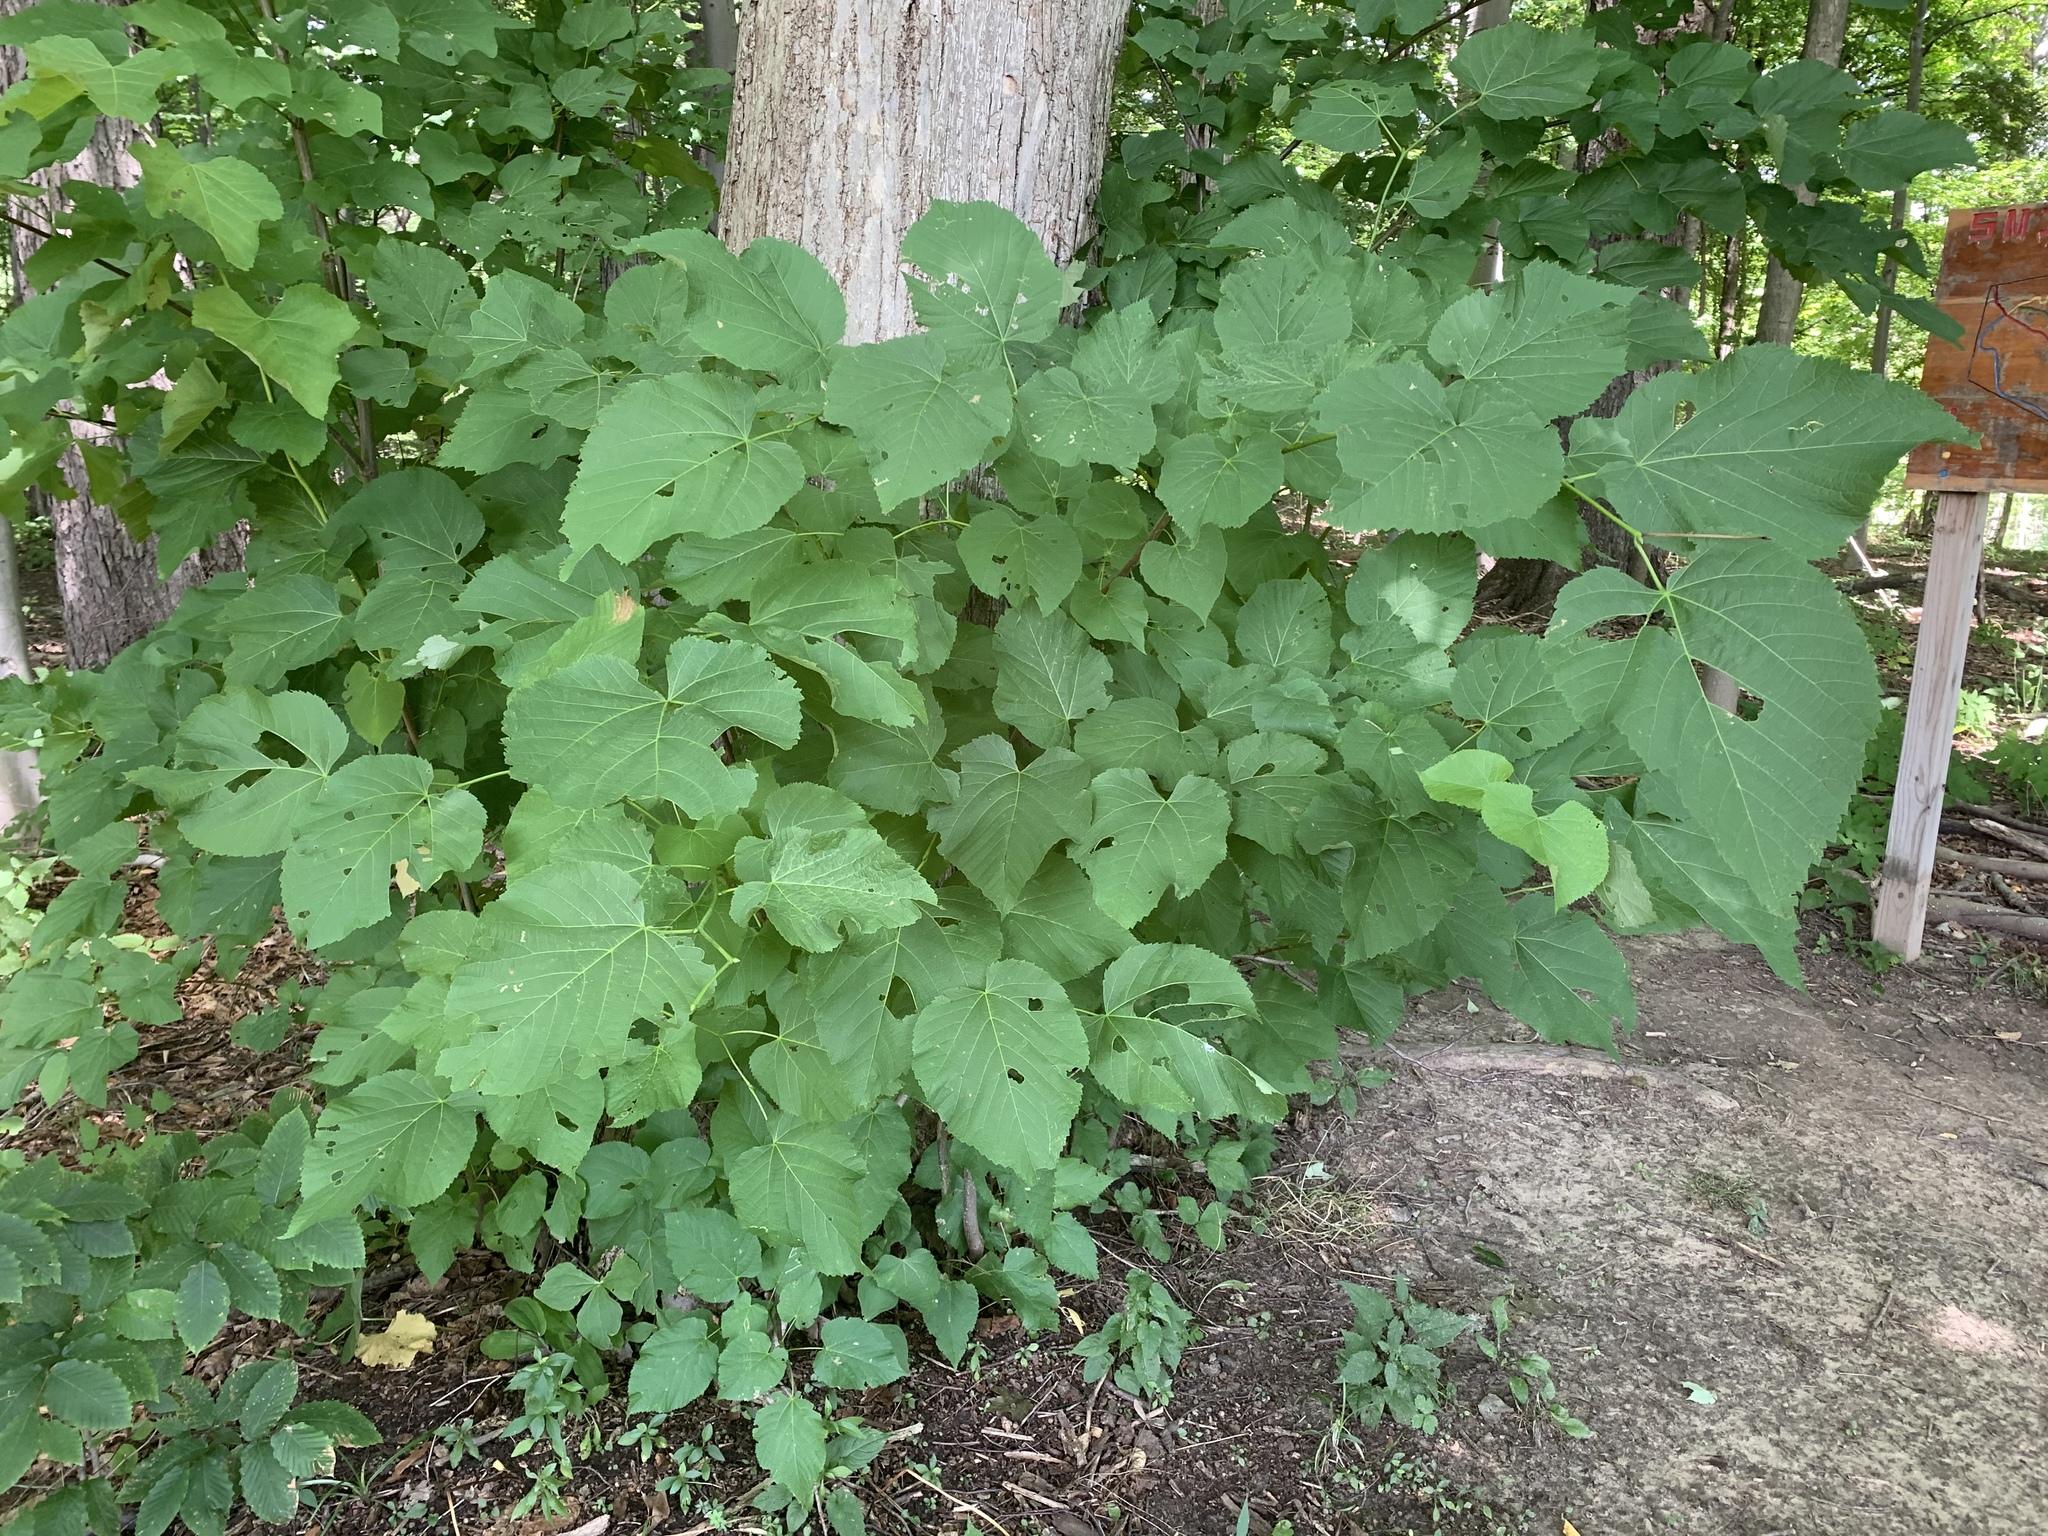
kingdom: Plantae
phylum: Tracheophyta
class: Magnoliopsida
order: Malvales
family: Malvaceae
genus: Tilia
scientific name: Tilia americana
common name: Basswood
